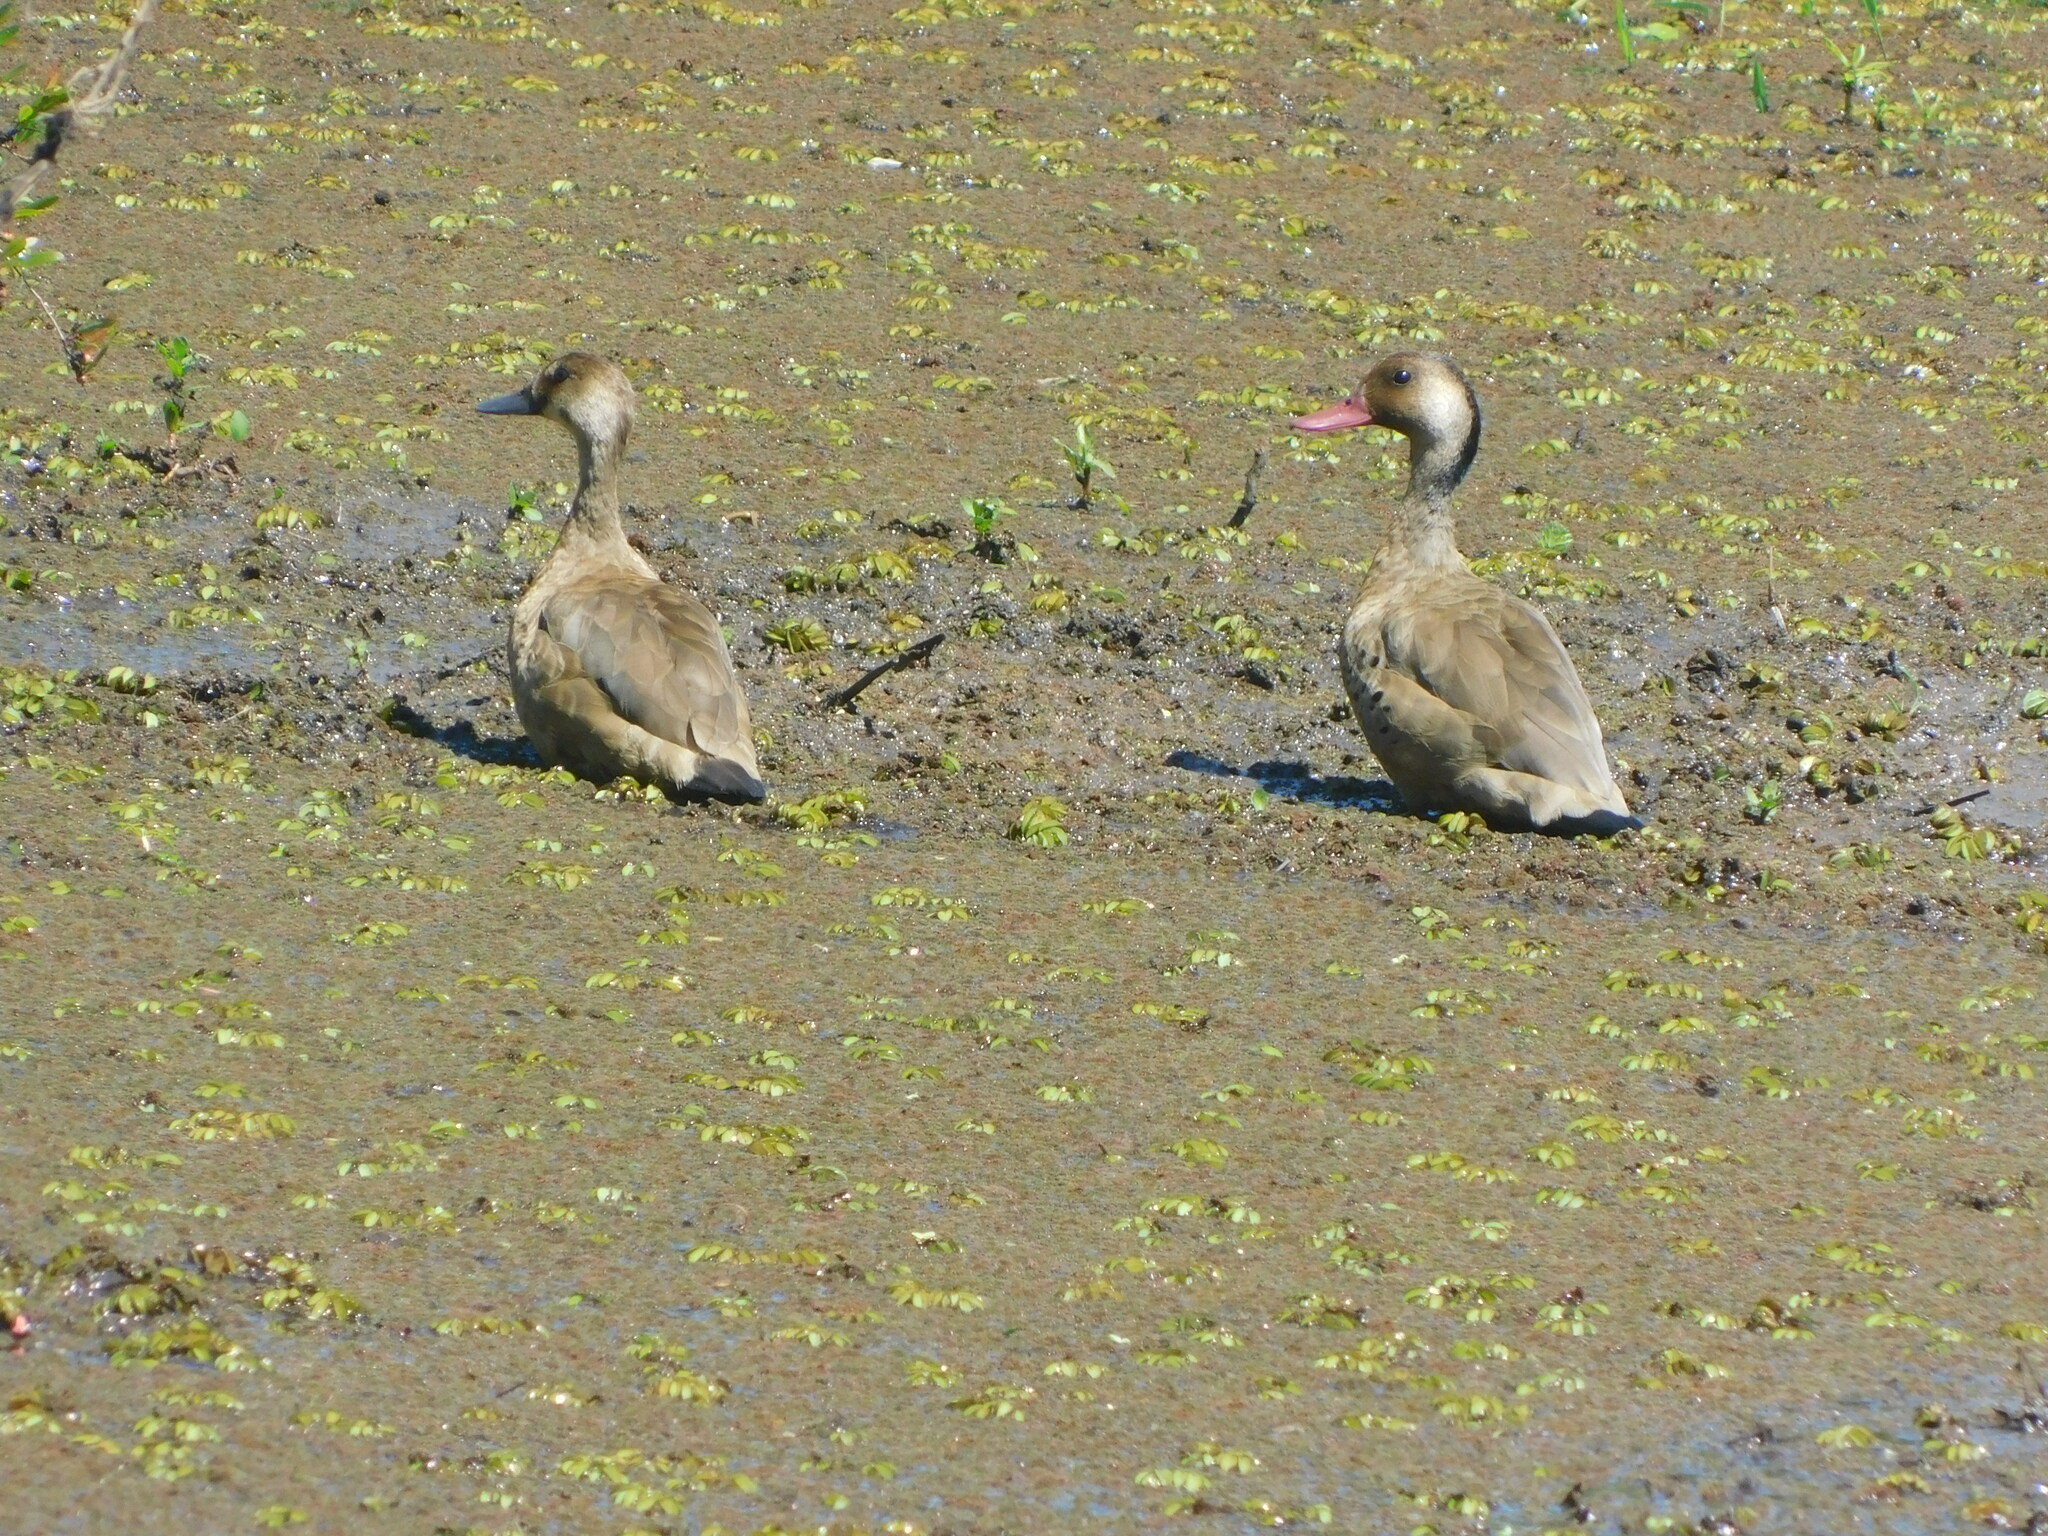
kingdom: Animalia
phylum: Chordata
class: Aves
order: Anseriformes
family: Anatidae
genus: Amazonetta
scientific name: Amazonetta brasiliensis
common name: Brazilian teal
